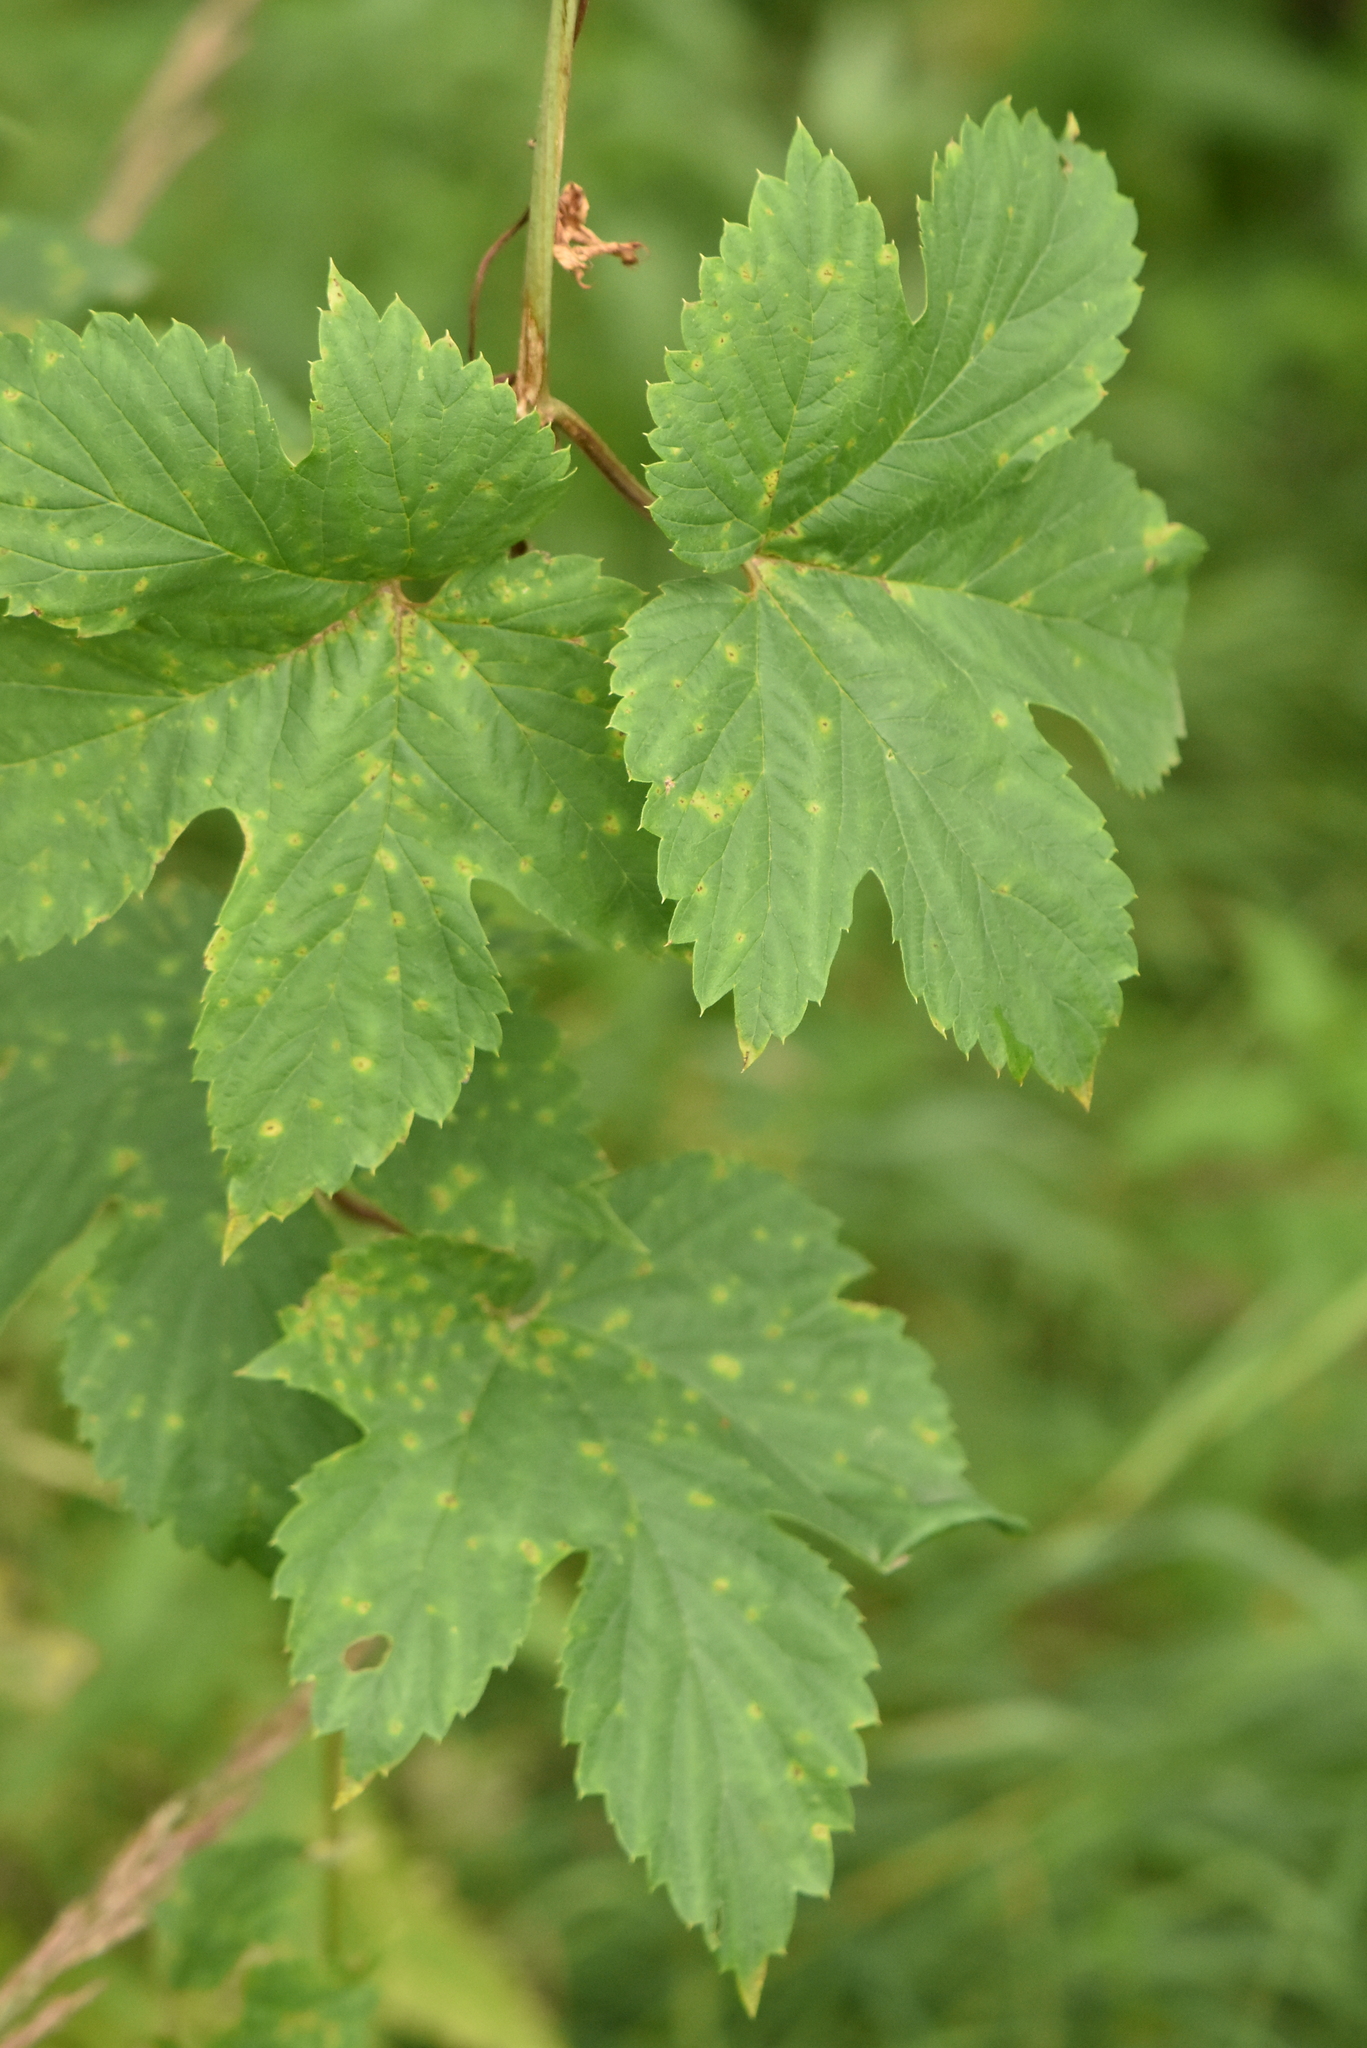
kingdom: Plantae
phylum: Tracheophyta
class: Magnoliopsida
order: Rosales
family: Cannabaceae
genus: Humulus
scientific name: Humulus lupulus
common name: Hop
